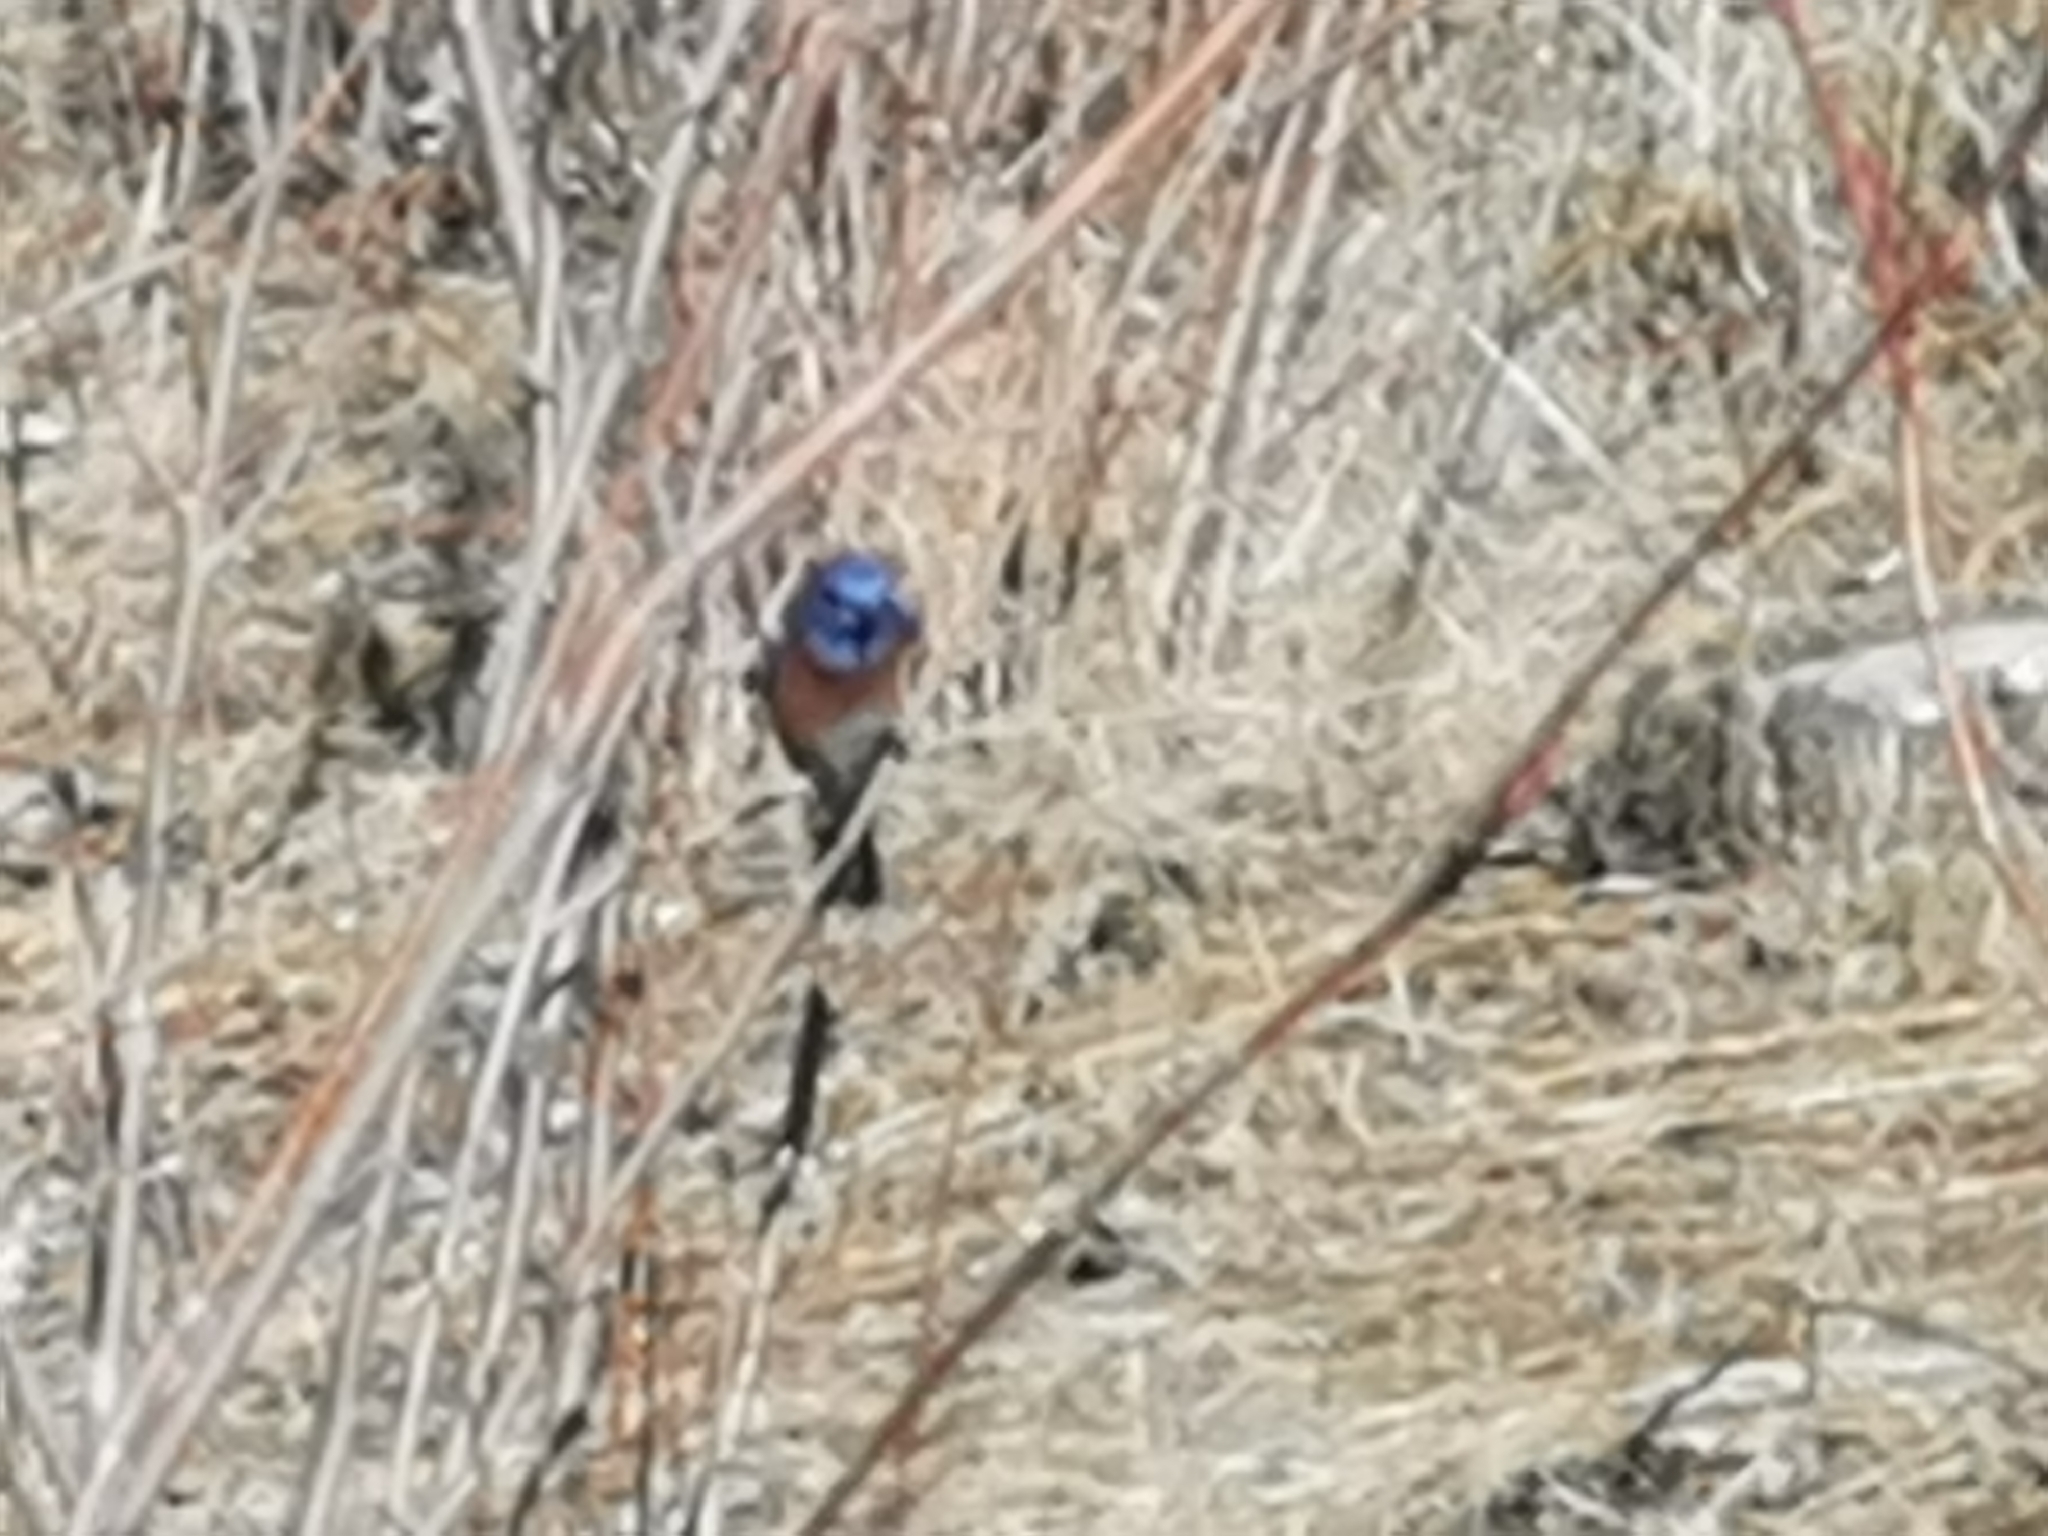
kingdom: Animalia
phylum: Chordata
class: Aves
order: Passeriformes
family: Turdidae
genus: Sialia
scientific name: Sialia mexicana
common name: Western bluebird
